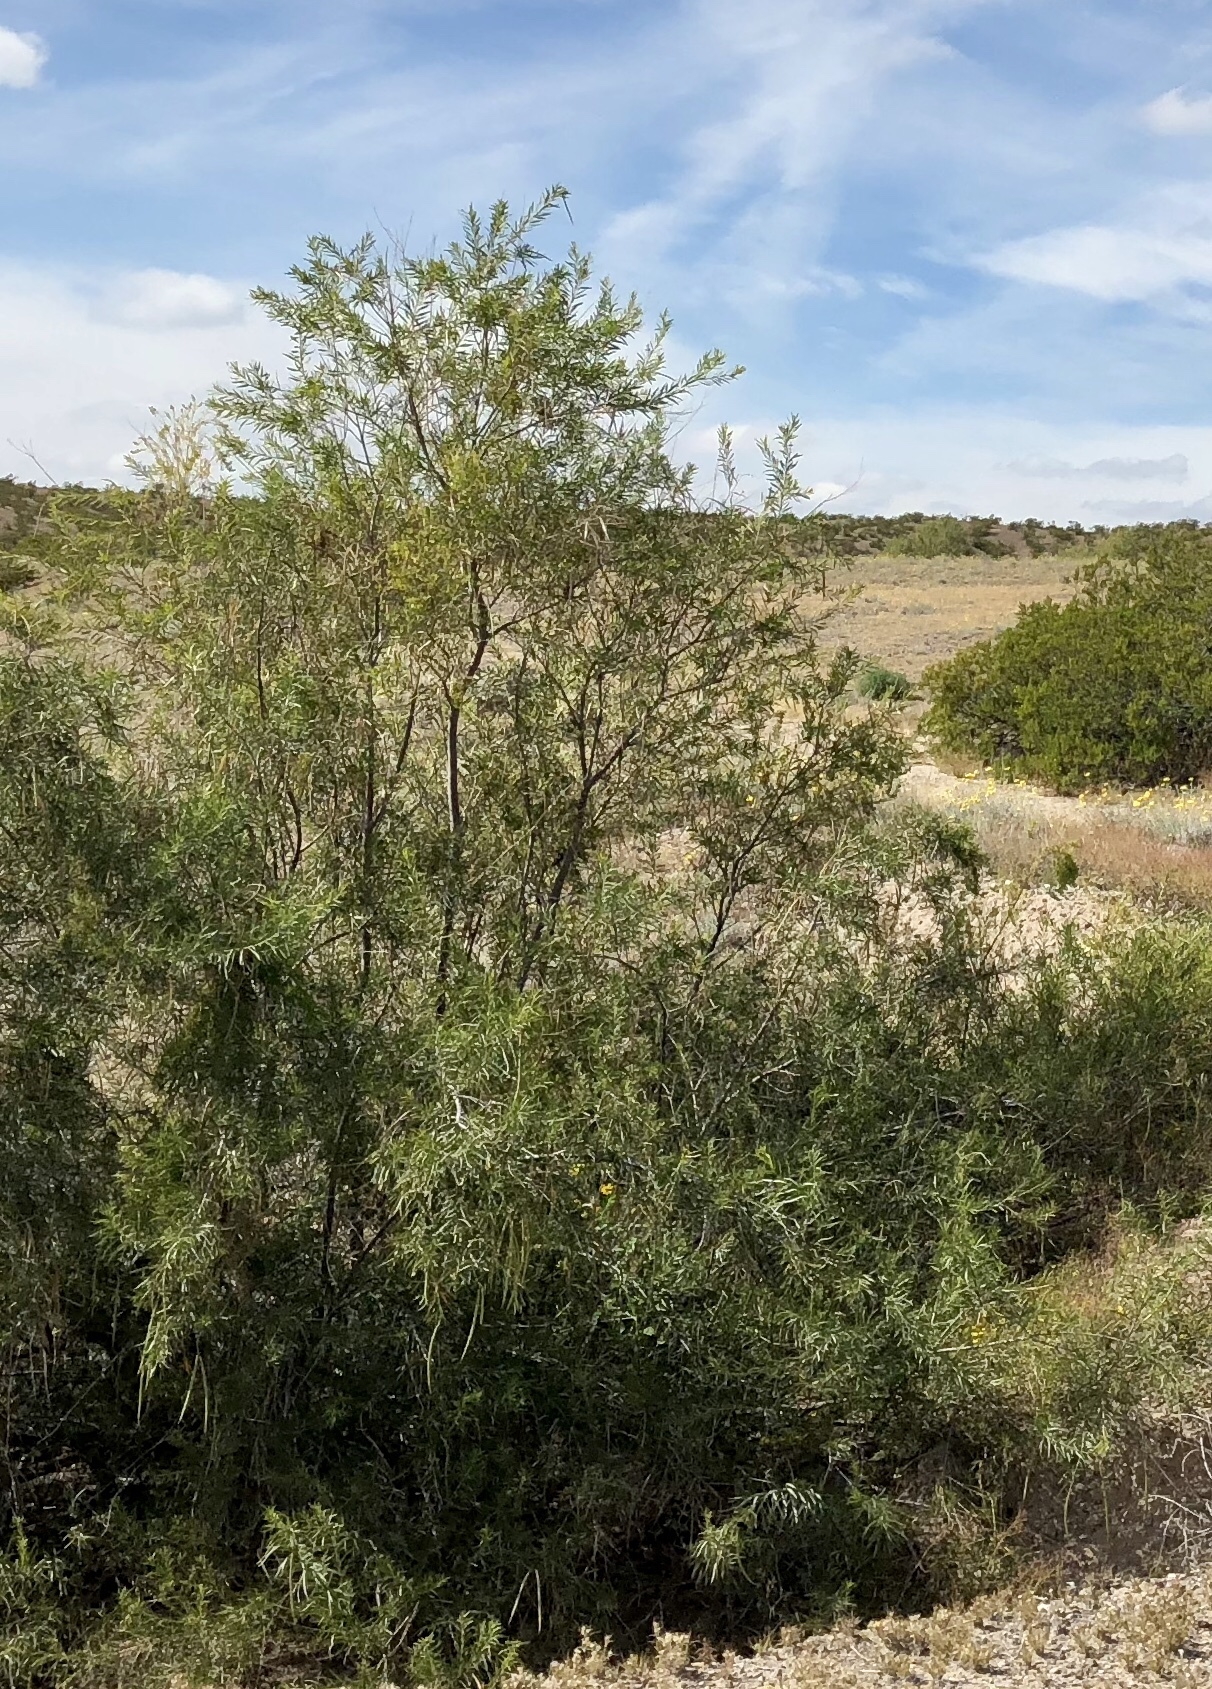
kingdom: Plantae
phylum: Tracheophyta
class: Magnoliopsida
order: Lamiales
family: Bignoniaceae
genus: Chilopsis
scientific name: Chilopsis linearis
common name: Desert-willow
